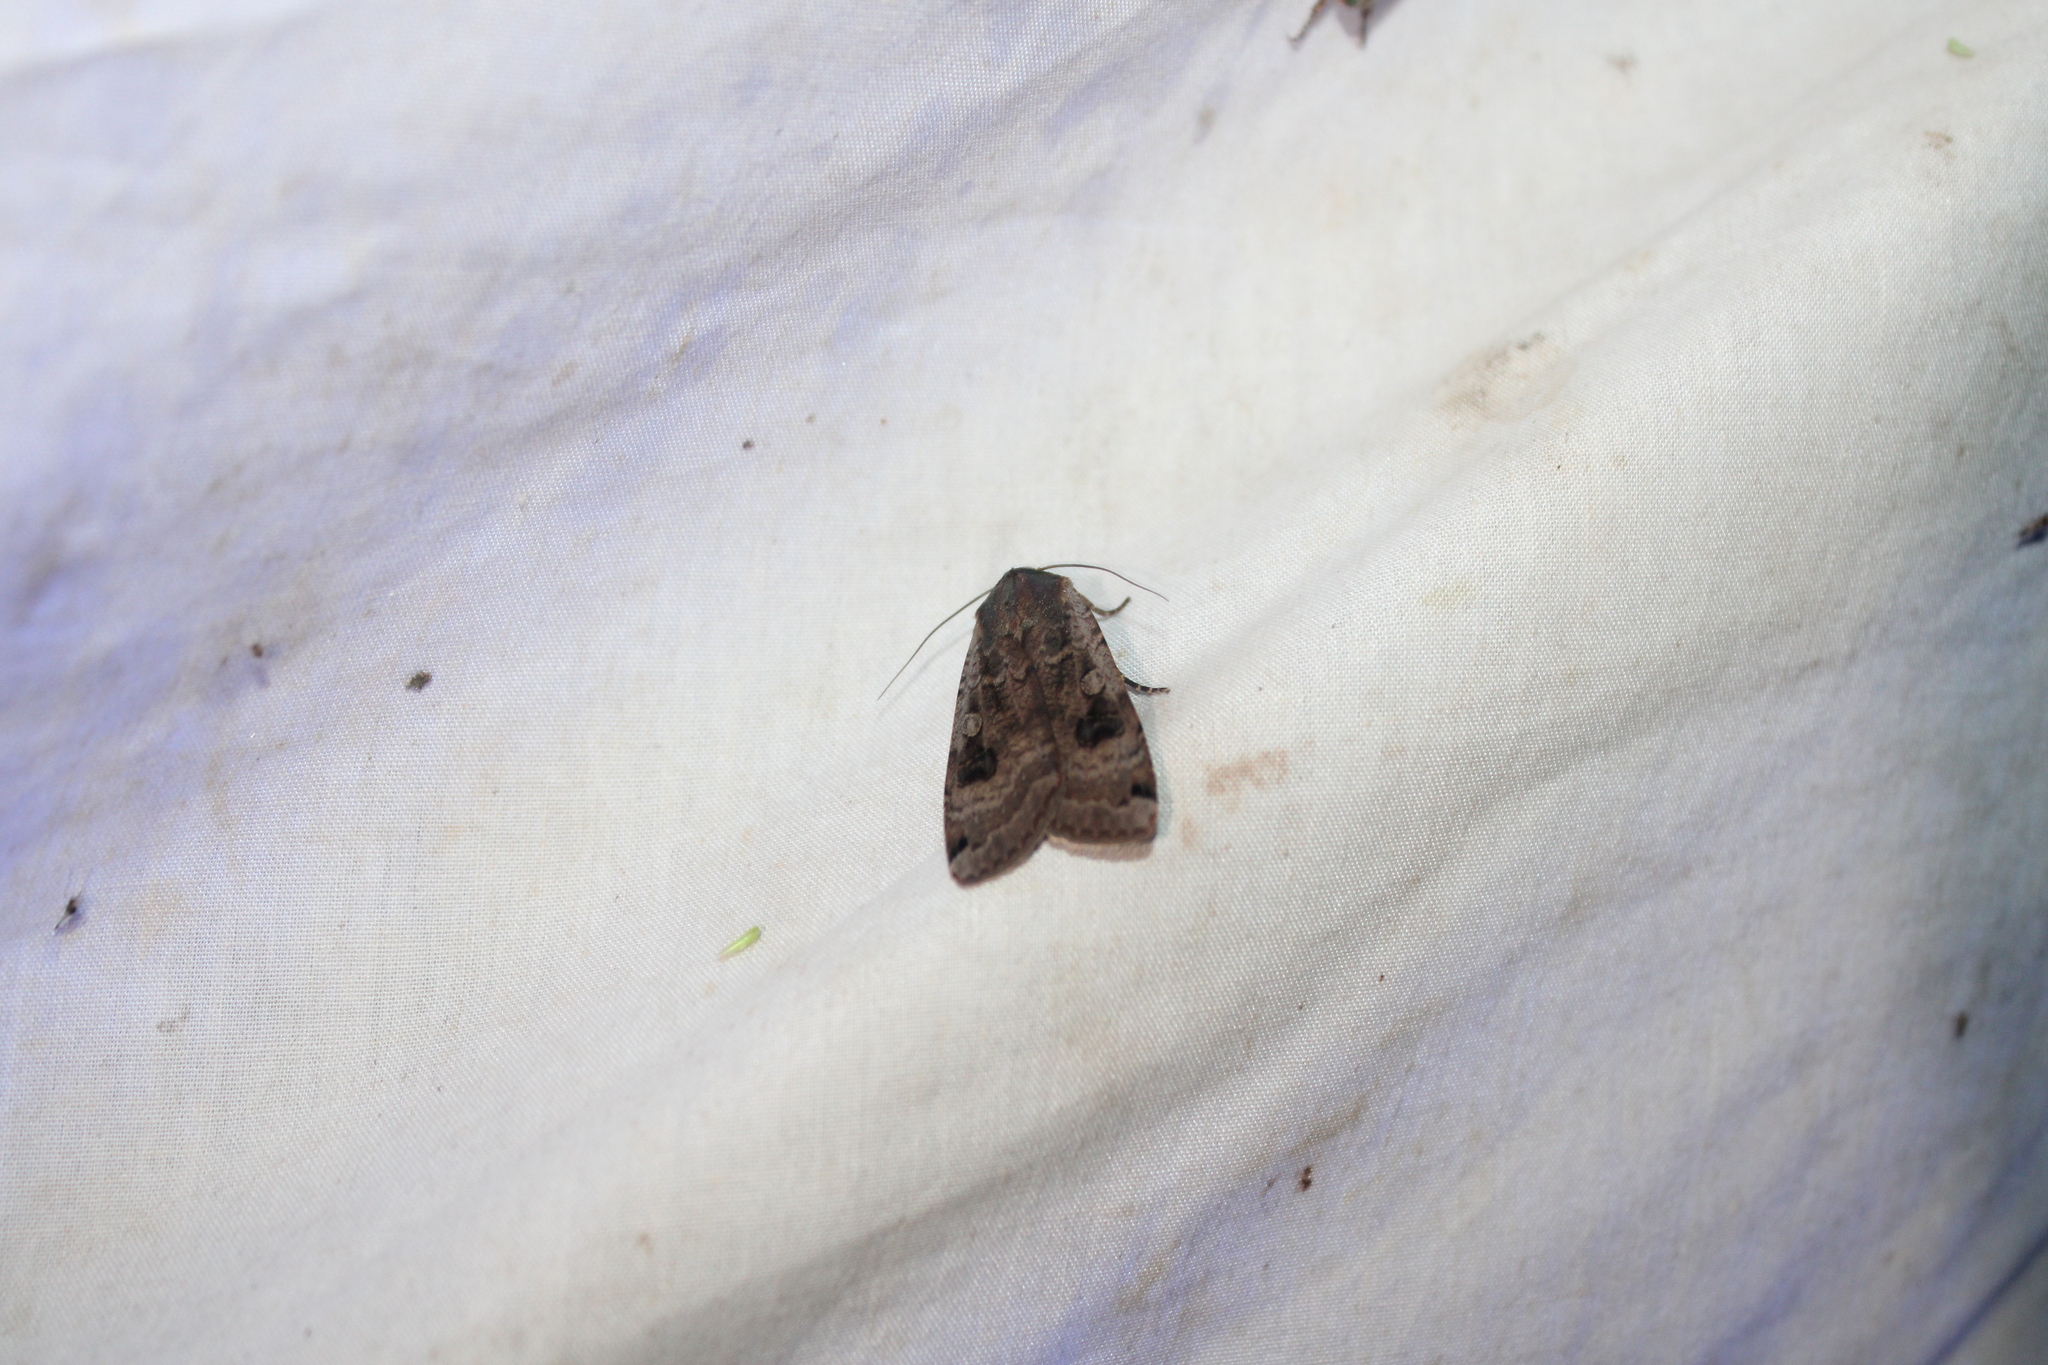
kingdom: Animalia
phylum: Arthropoda
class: Insecta
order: Lepidoptera
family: Noctuidae
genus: Noctua
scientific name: Noctua pronuba
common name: Large yellow underwing
